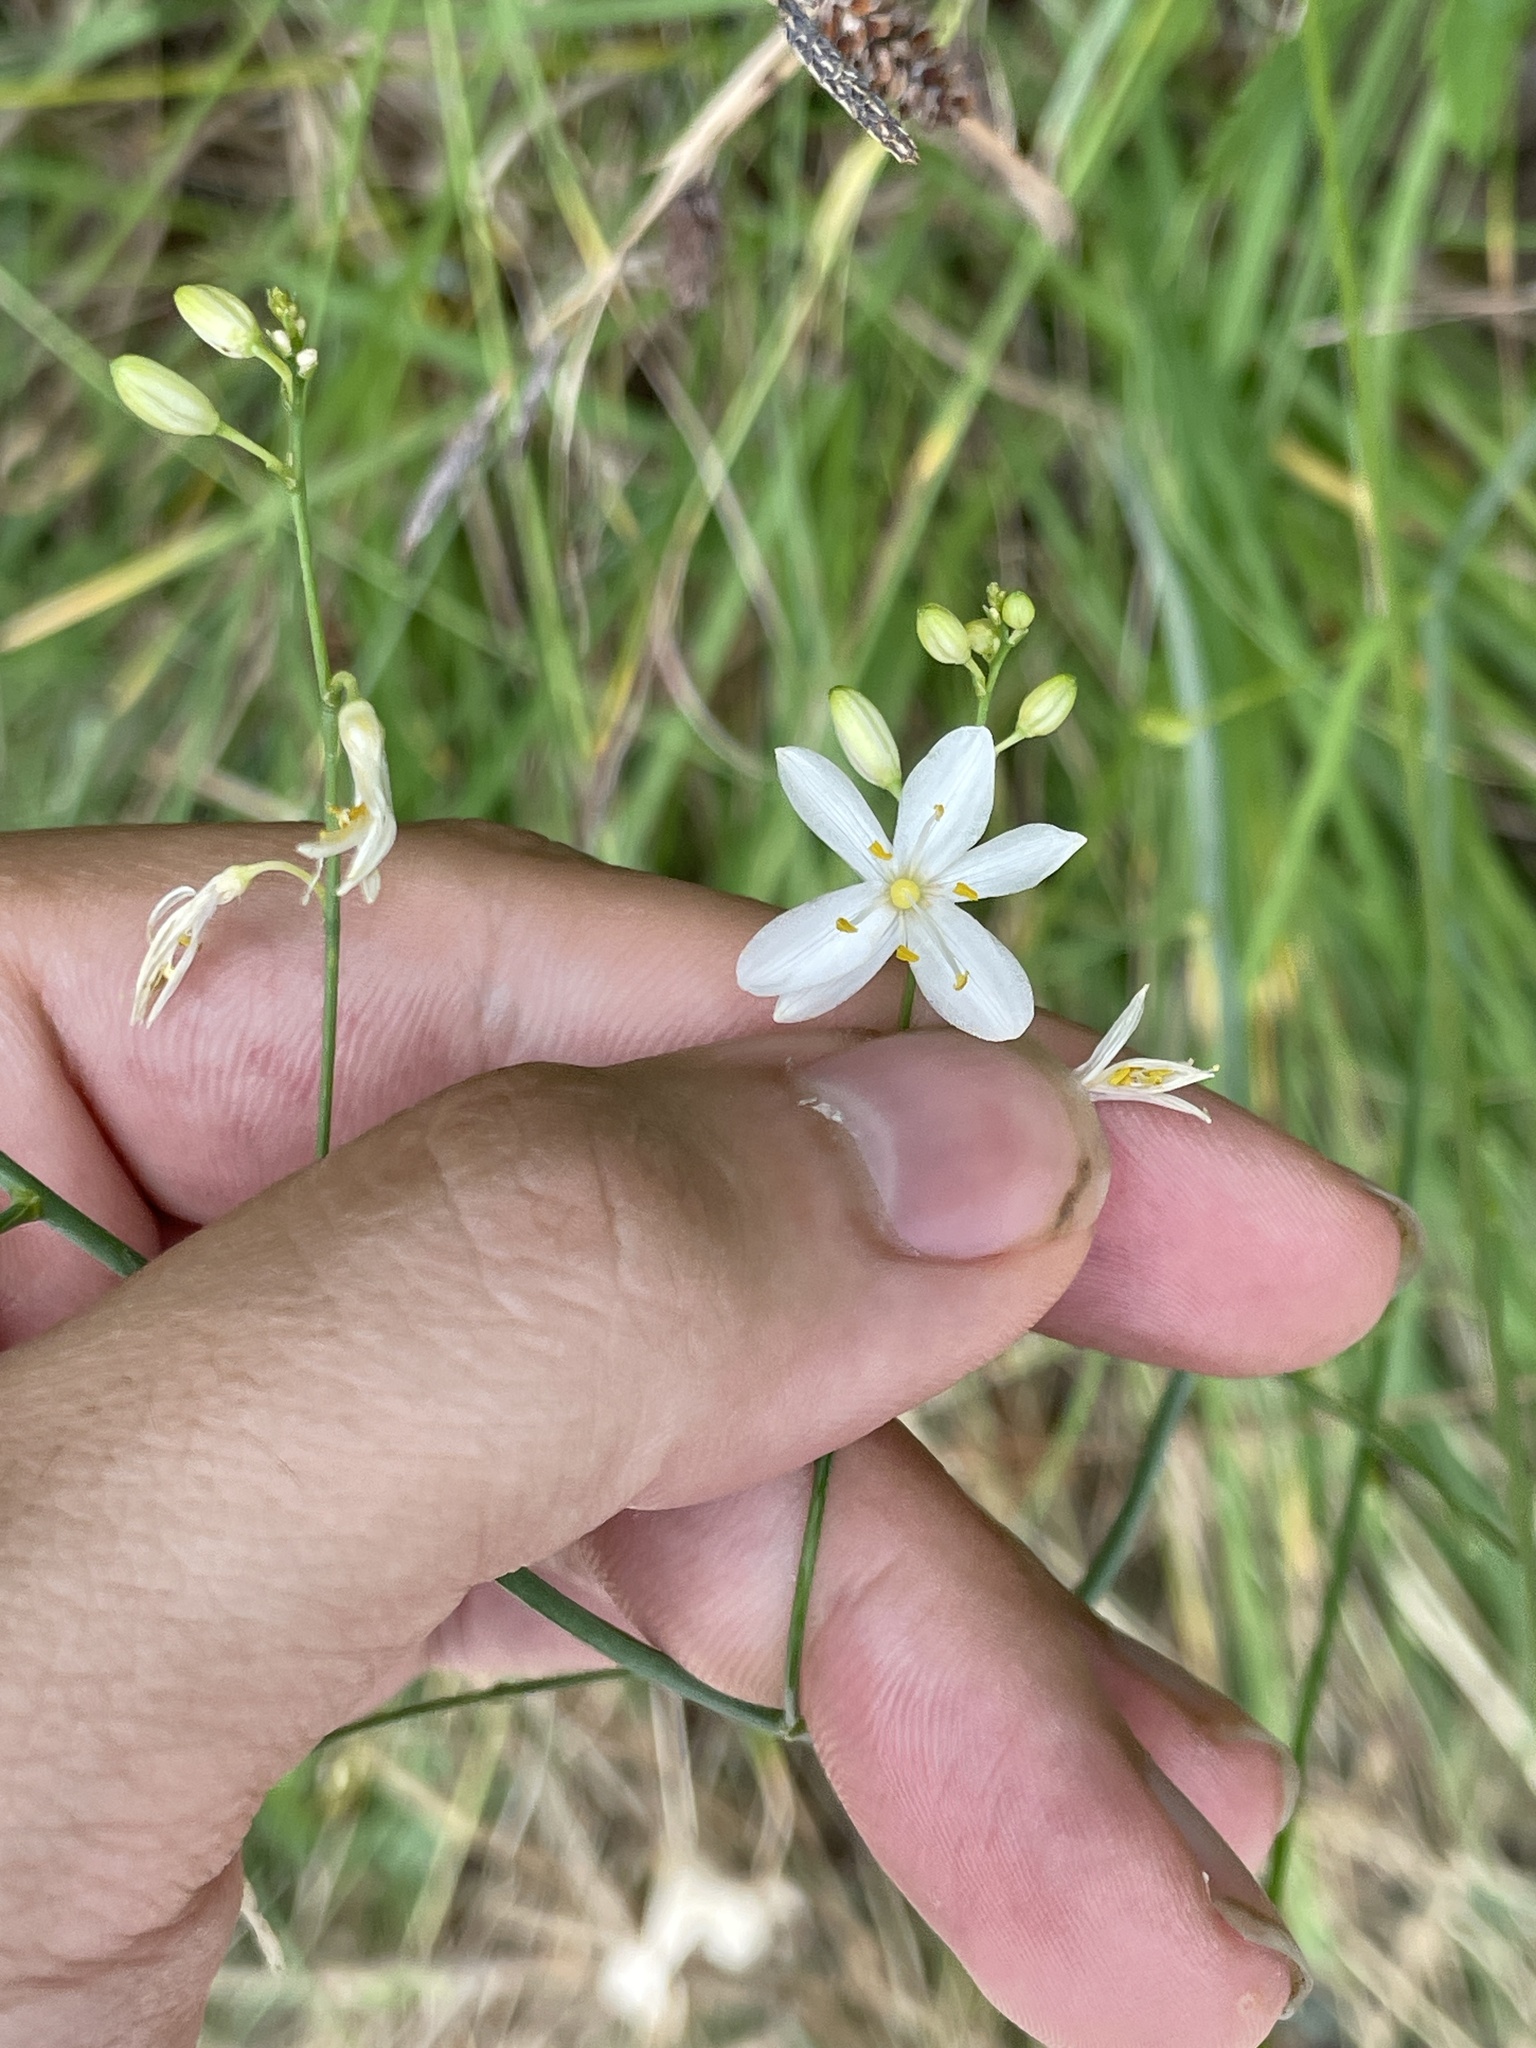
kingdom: Plantae
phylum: Tracheophyta
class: Liliopsida
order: Asparagales
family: Asparagaceae
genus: Anthericum
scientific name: Anthericum ramosum
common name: Branched st. bernard's-lily
